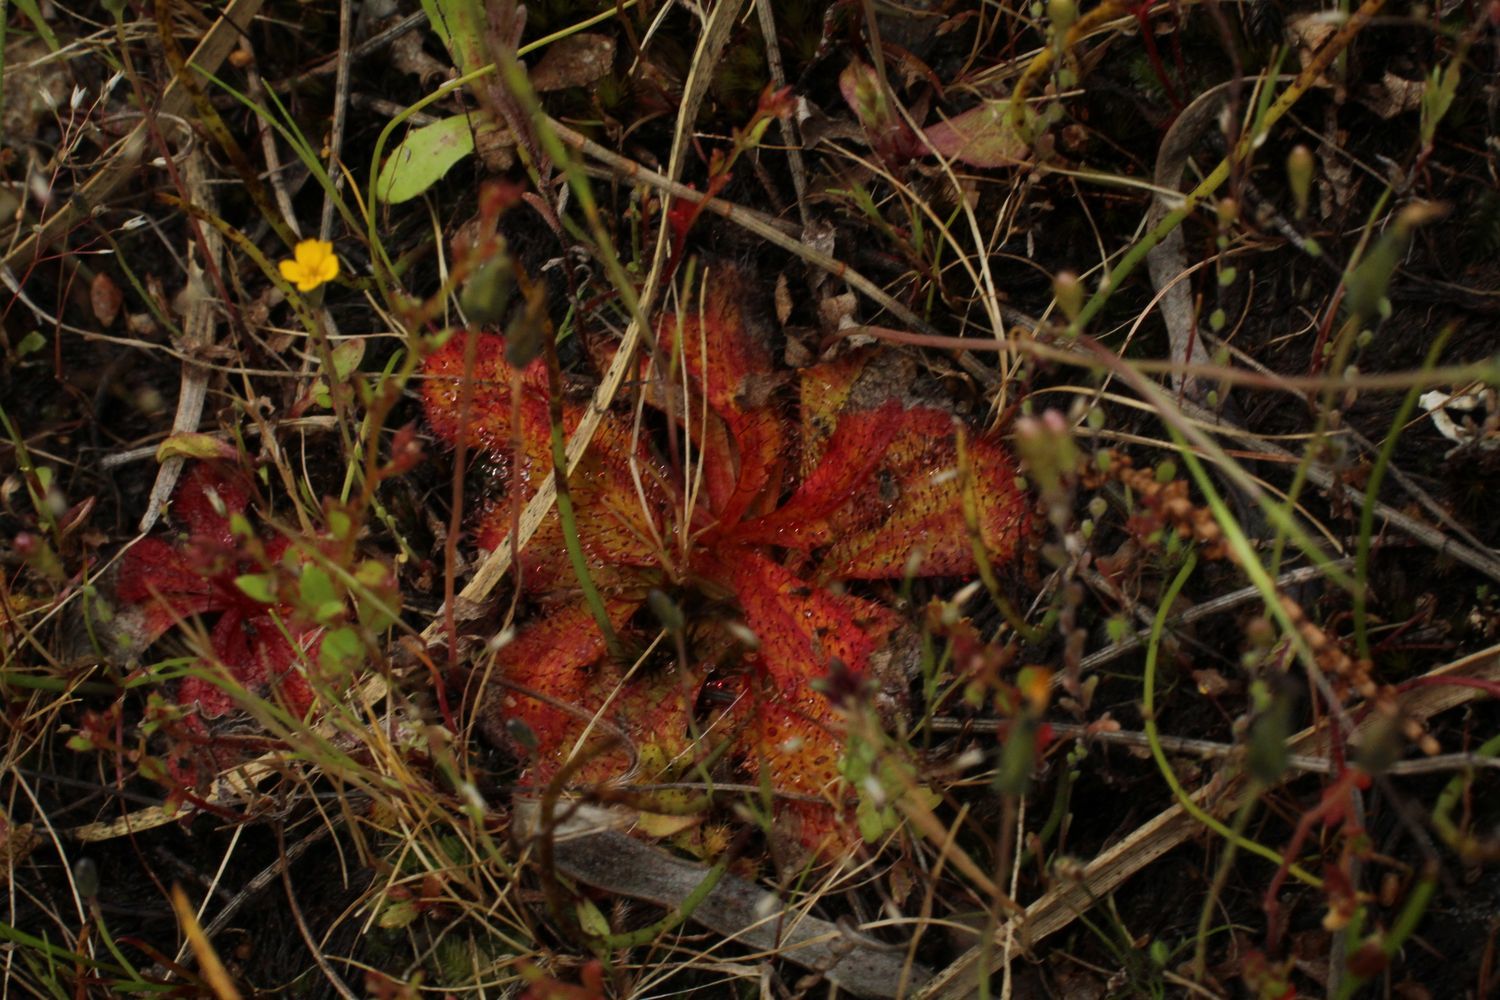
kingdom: Plantae
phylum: Tracheophyta
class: Magnoliopsida
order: Caryophyllales
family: Droseraceae
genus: Drosera
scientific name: Drosera bulbosa
